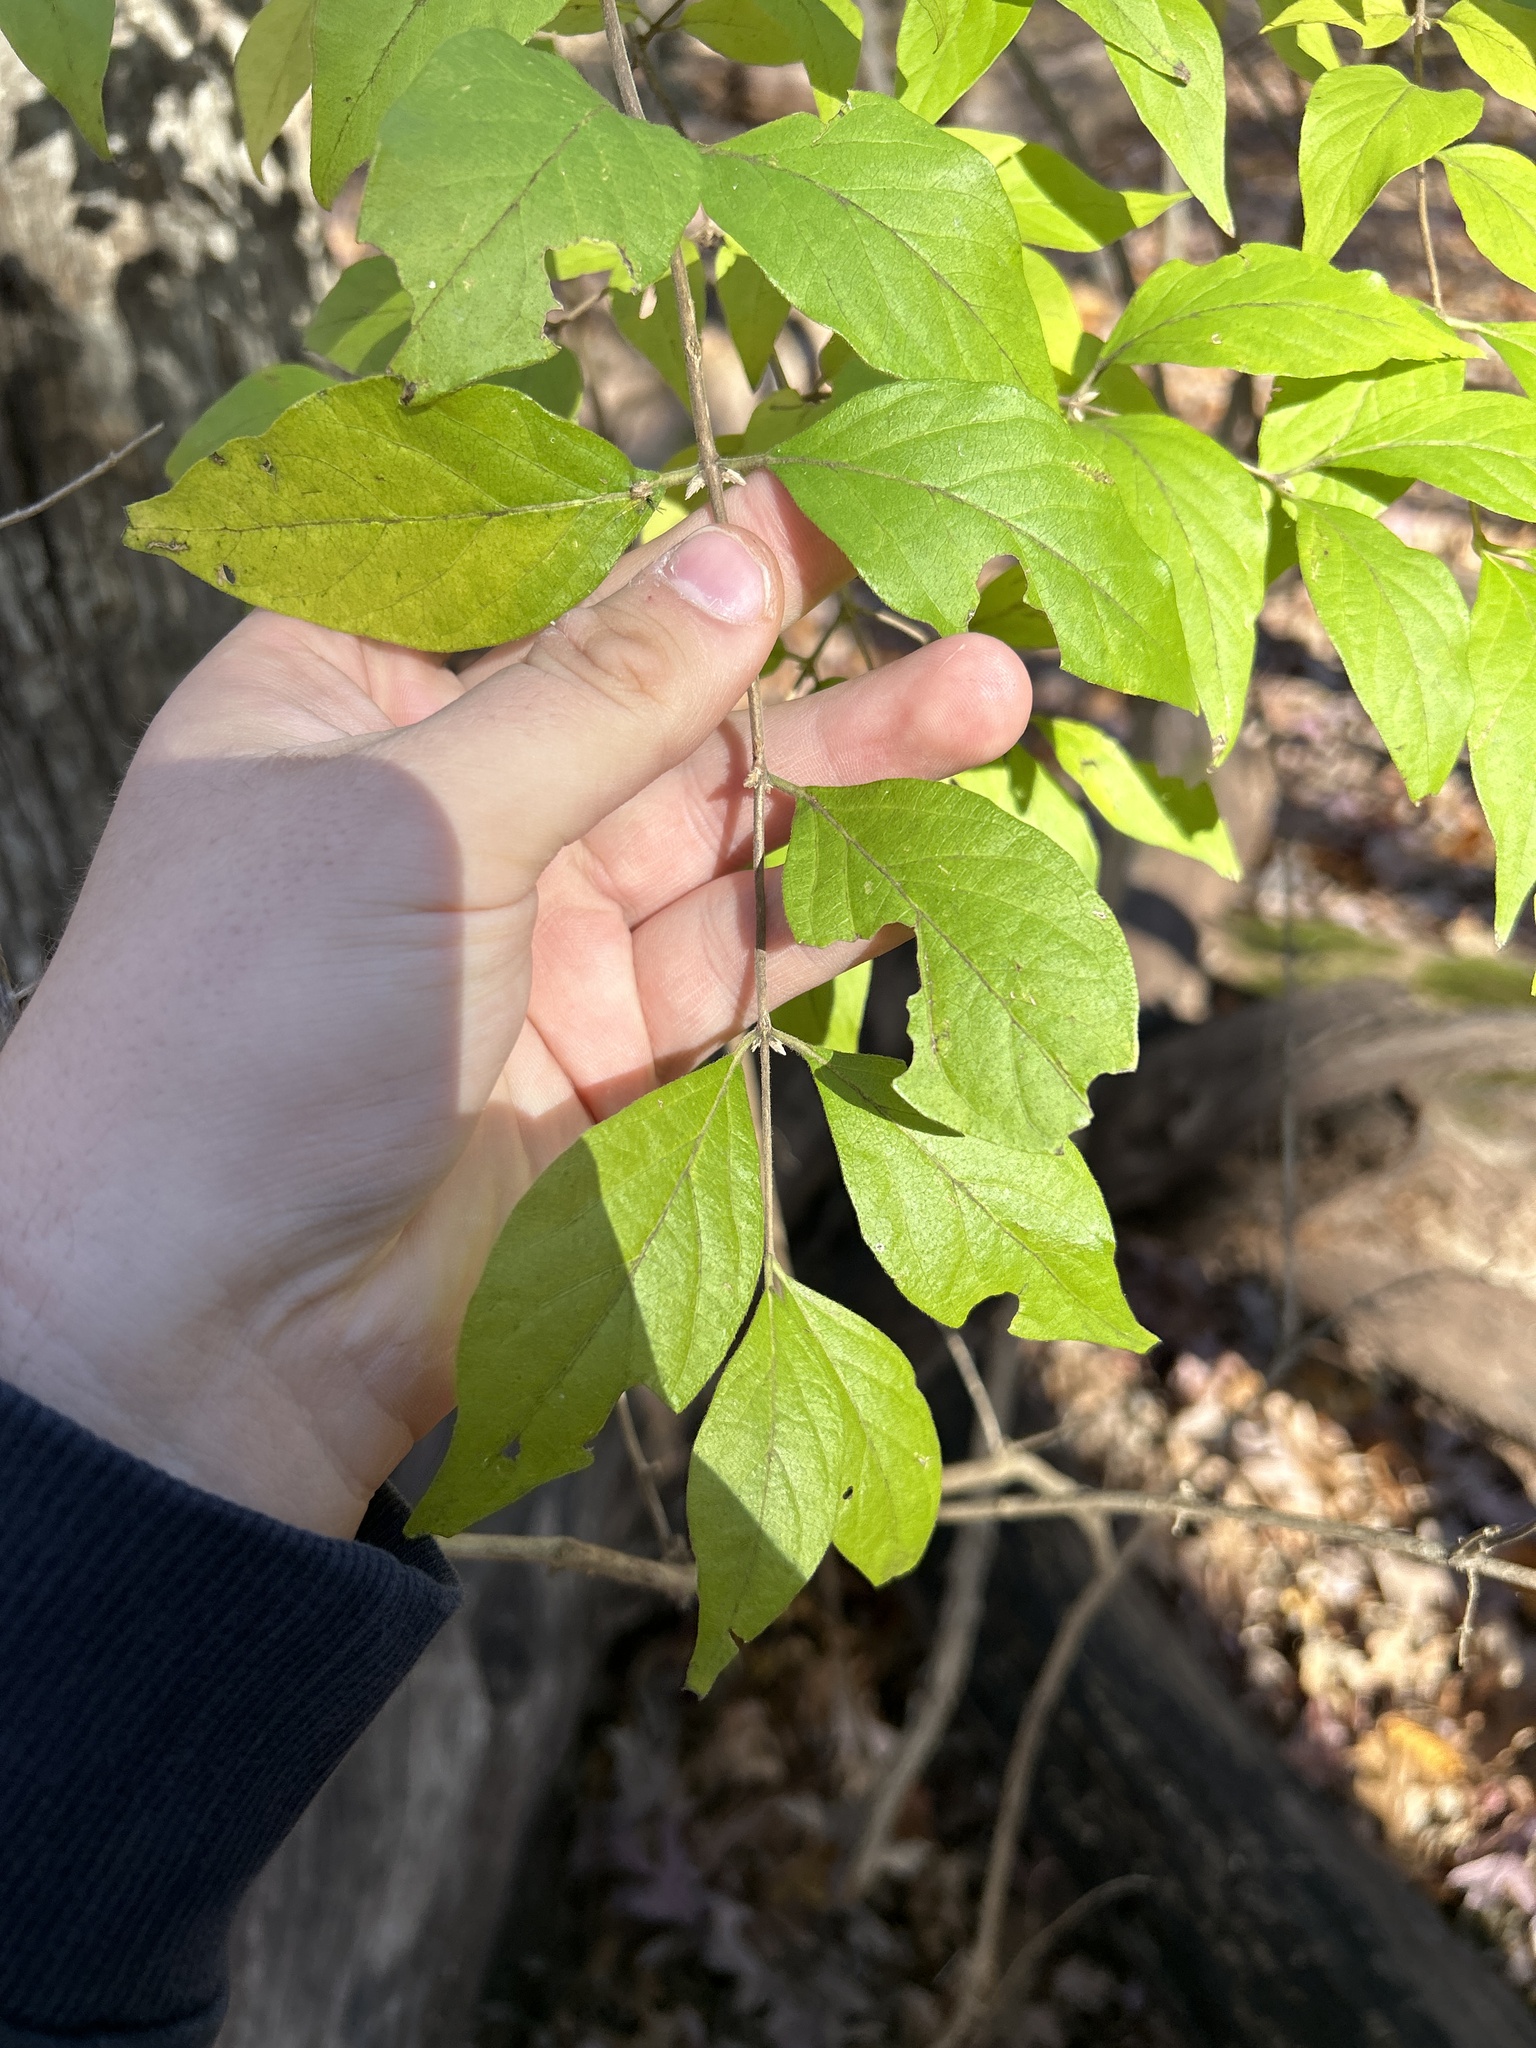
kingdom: Plantae
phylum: Tracheophyta
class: Magnoliopsida
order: Dipsacales
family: Caprifoliaceae
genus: Lonicera
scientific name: Lonicera maackii
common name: Amur honeysuckle
